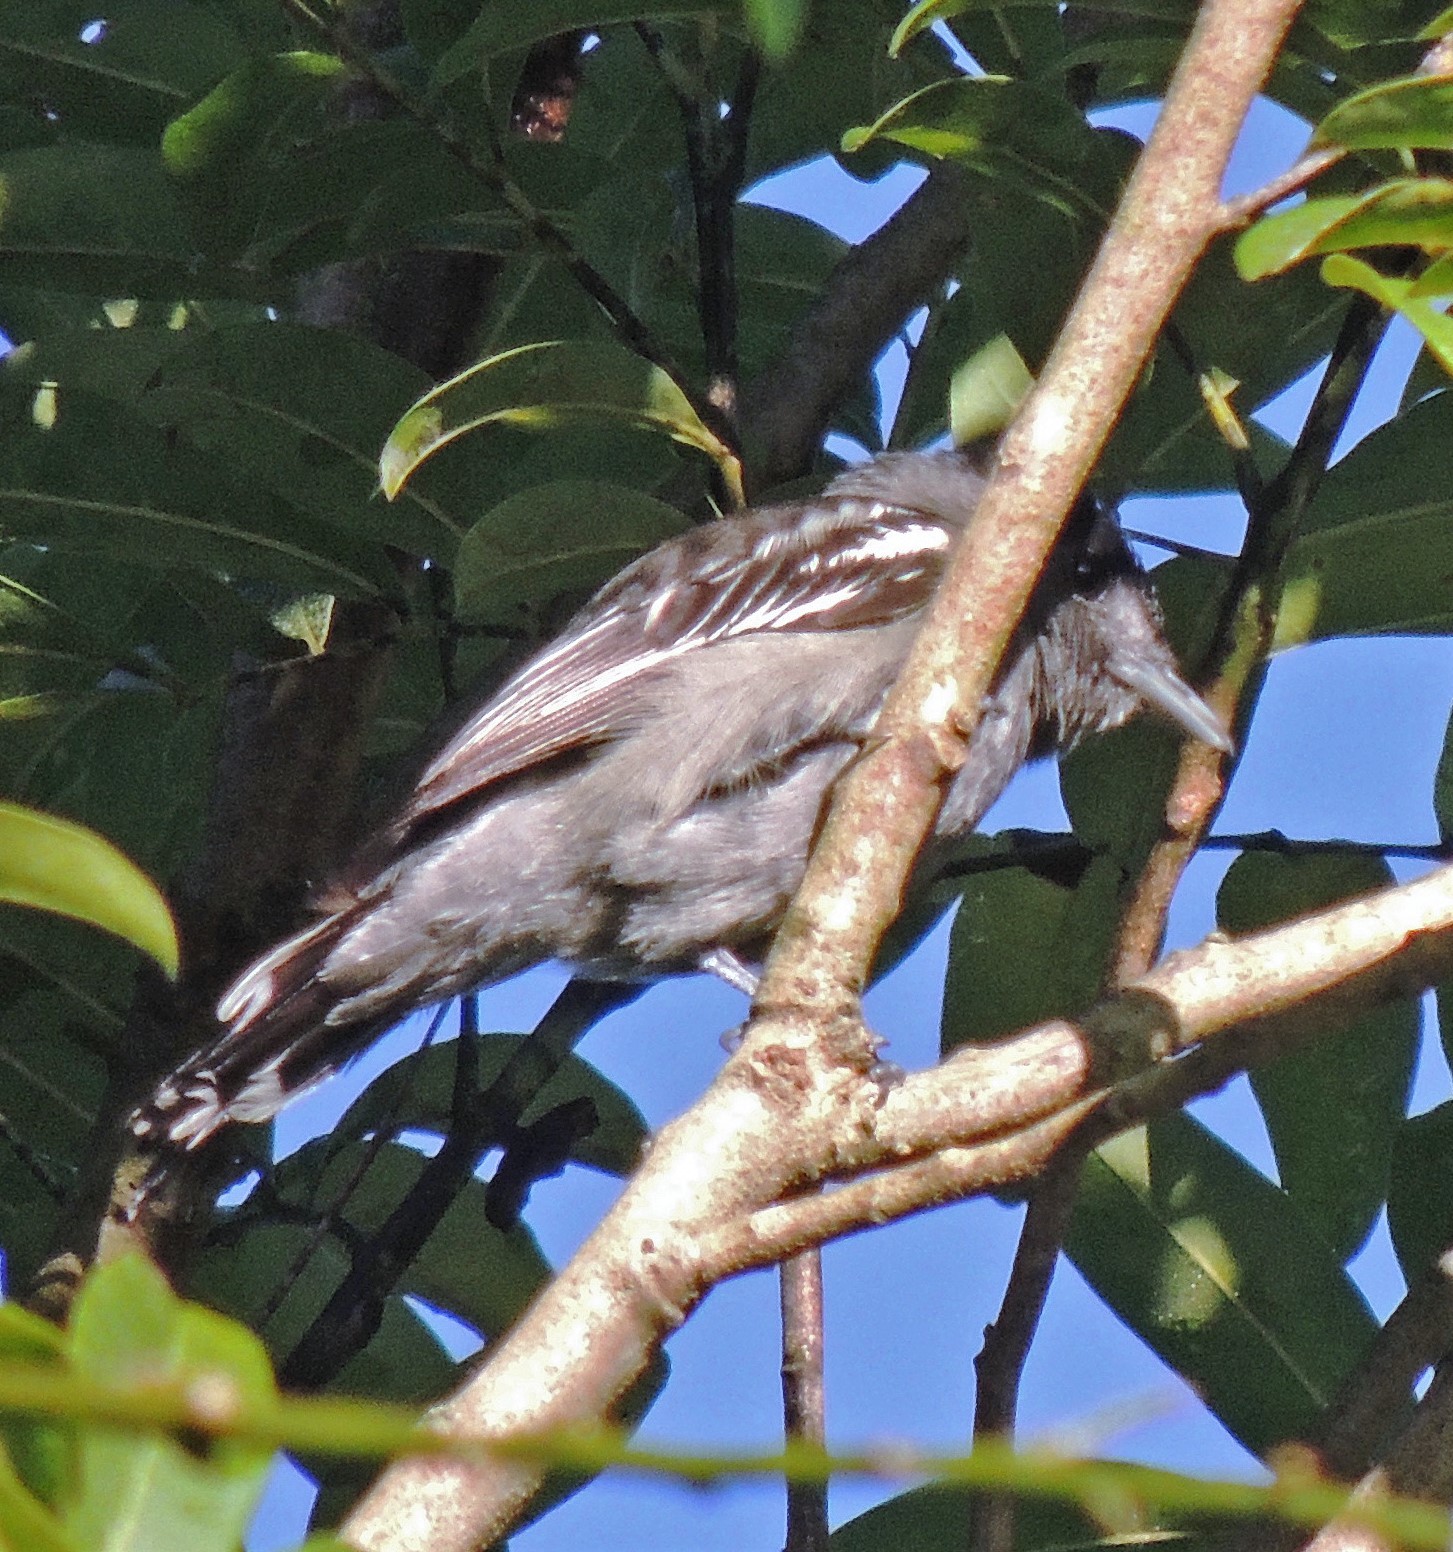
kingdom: Animalia
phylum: Chordata
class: Aves
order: Passeriformes
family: Cotingidae
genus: Pachyramphus
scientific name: Pachyramphus polychopterus
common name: White-winged becard
